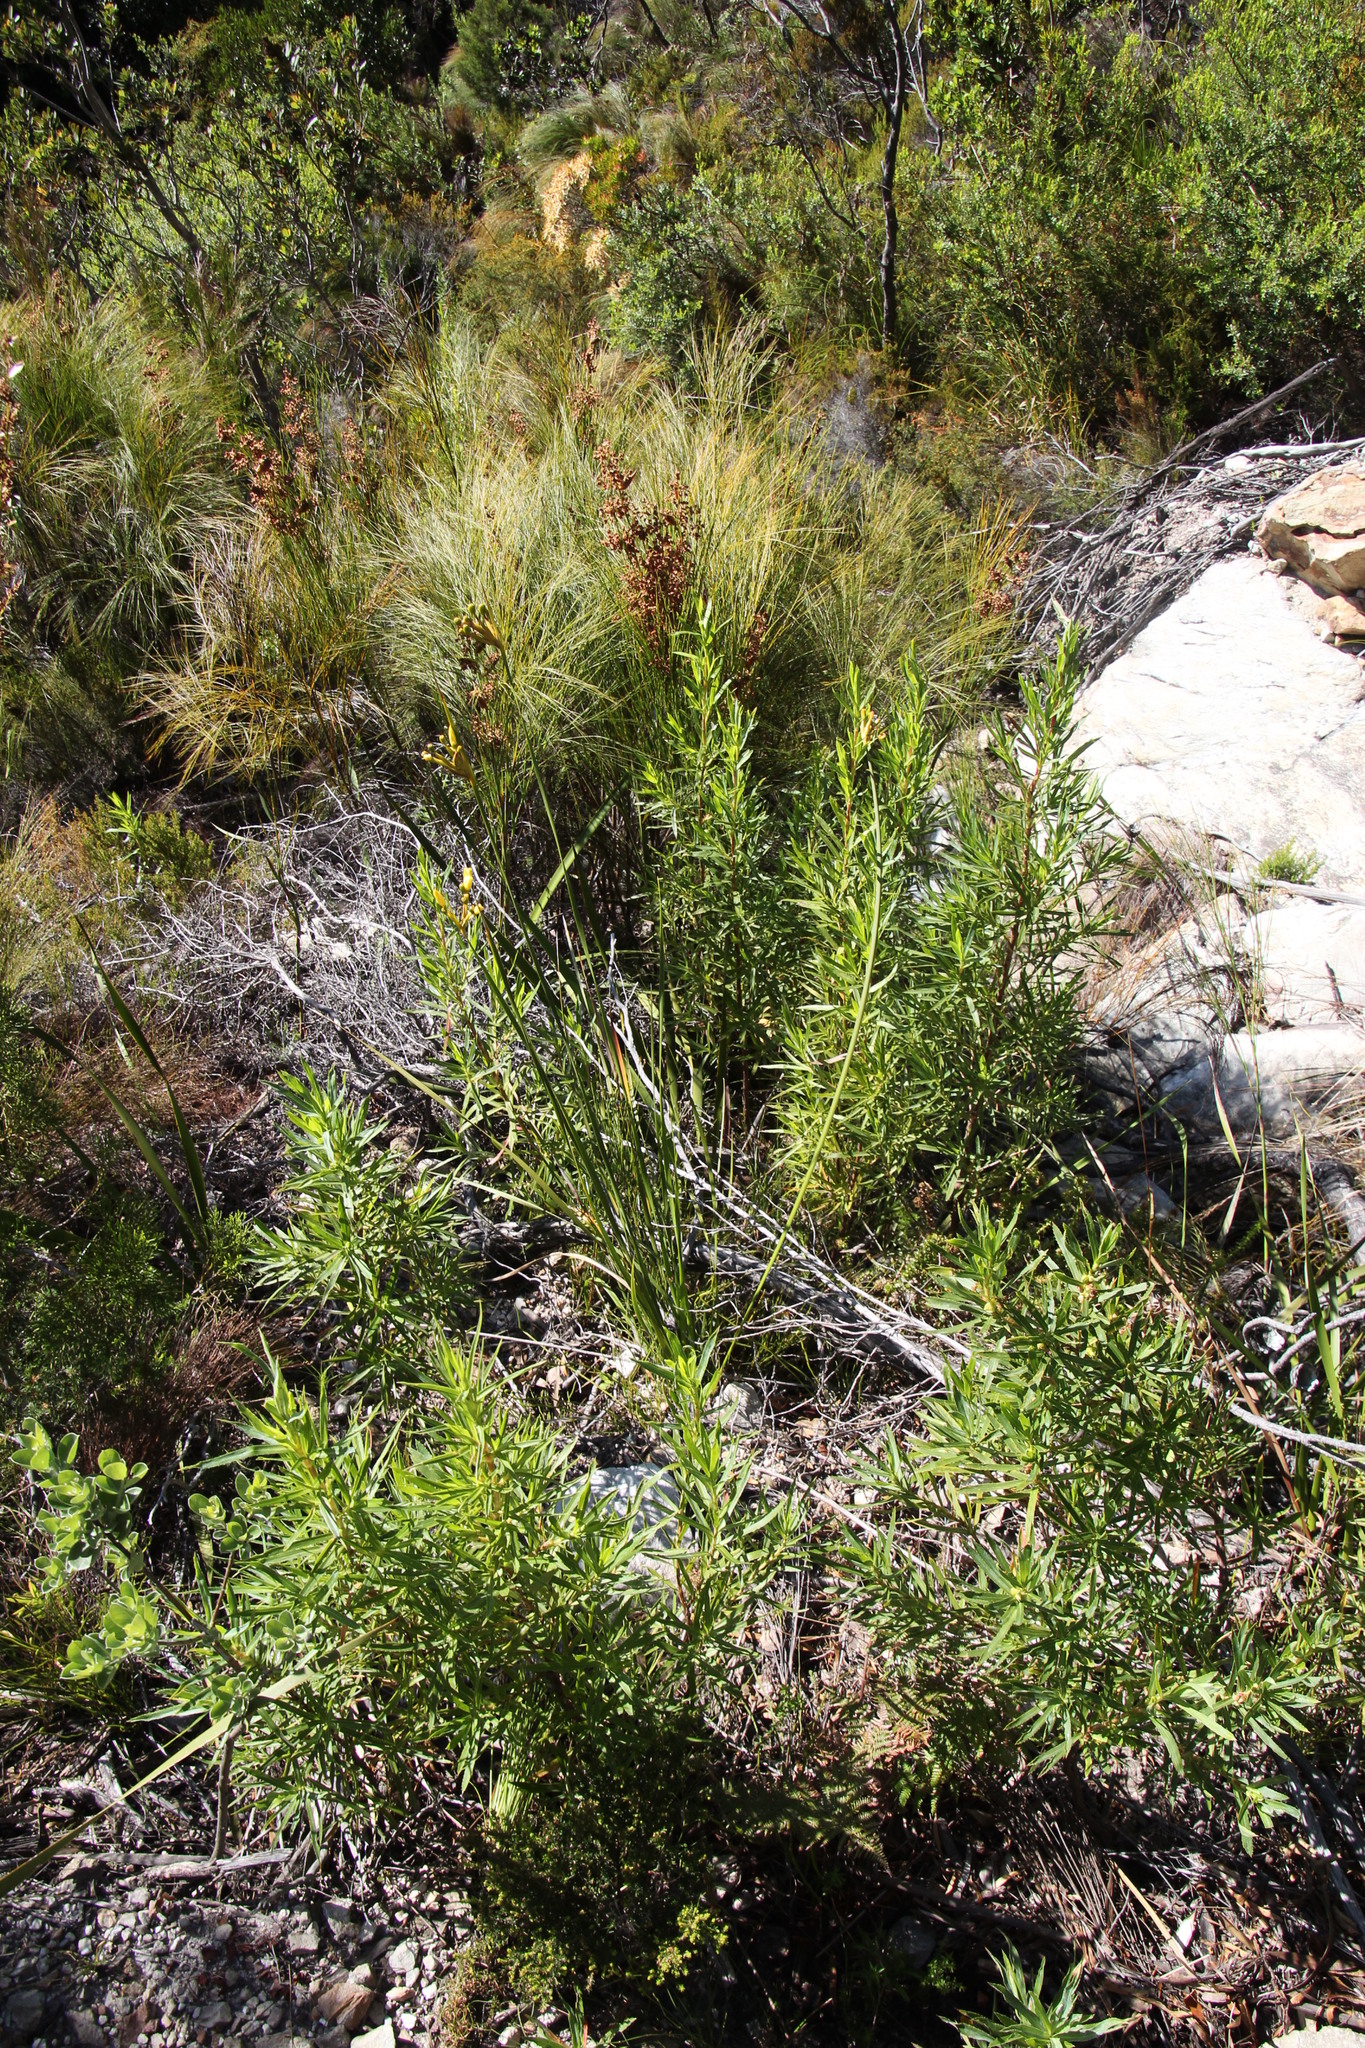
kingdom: Plantae
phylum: Tracheophyta
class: Liliopsida
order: Asparagales
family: Iridaceae
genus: Bobartia
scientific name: Bobartia gladiata
